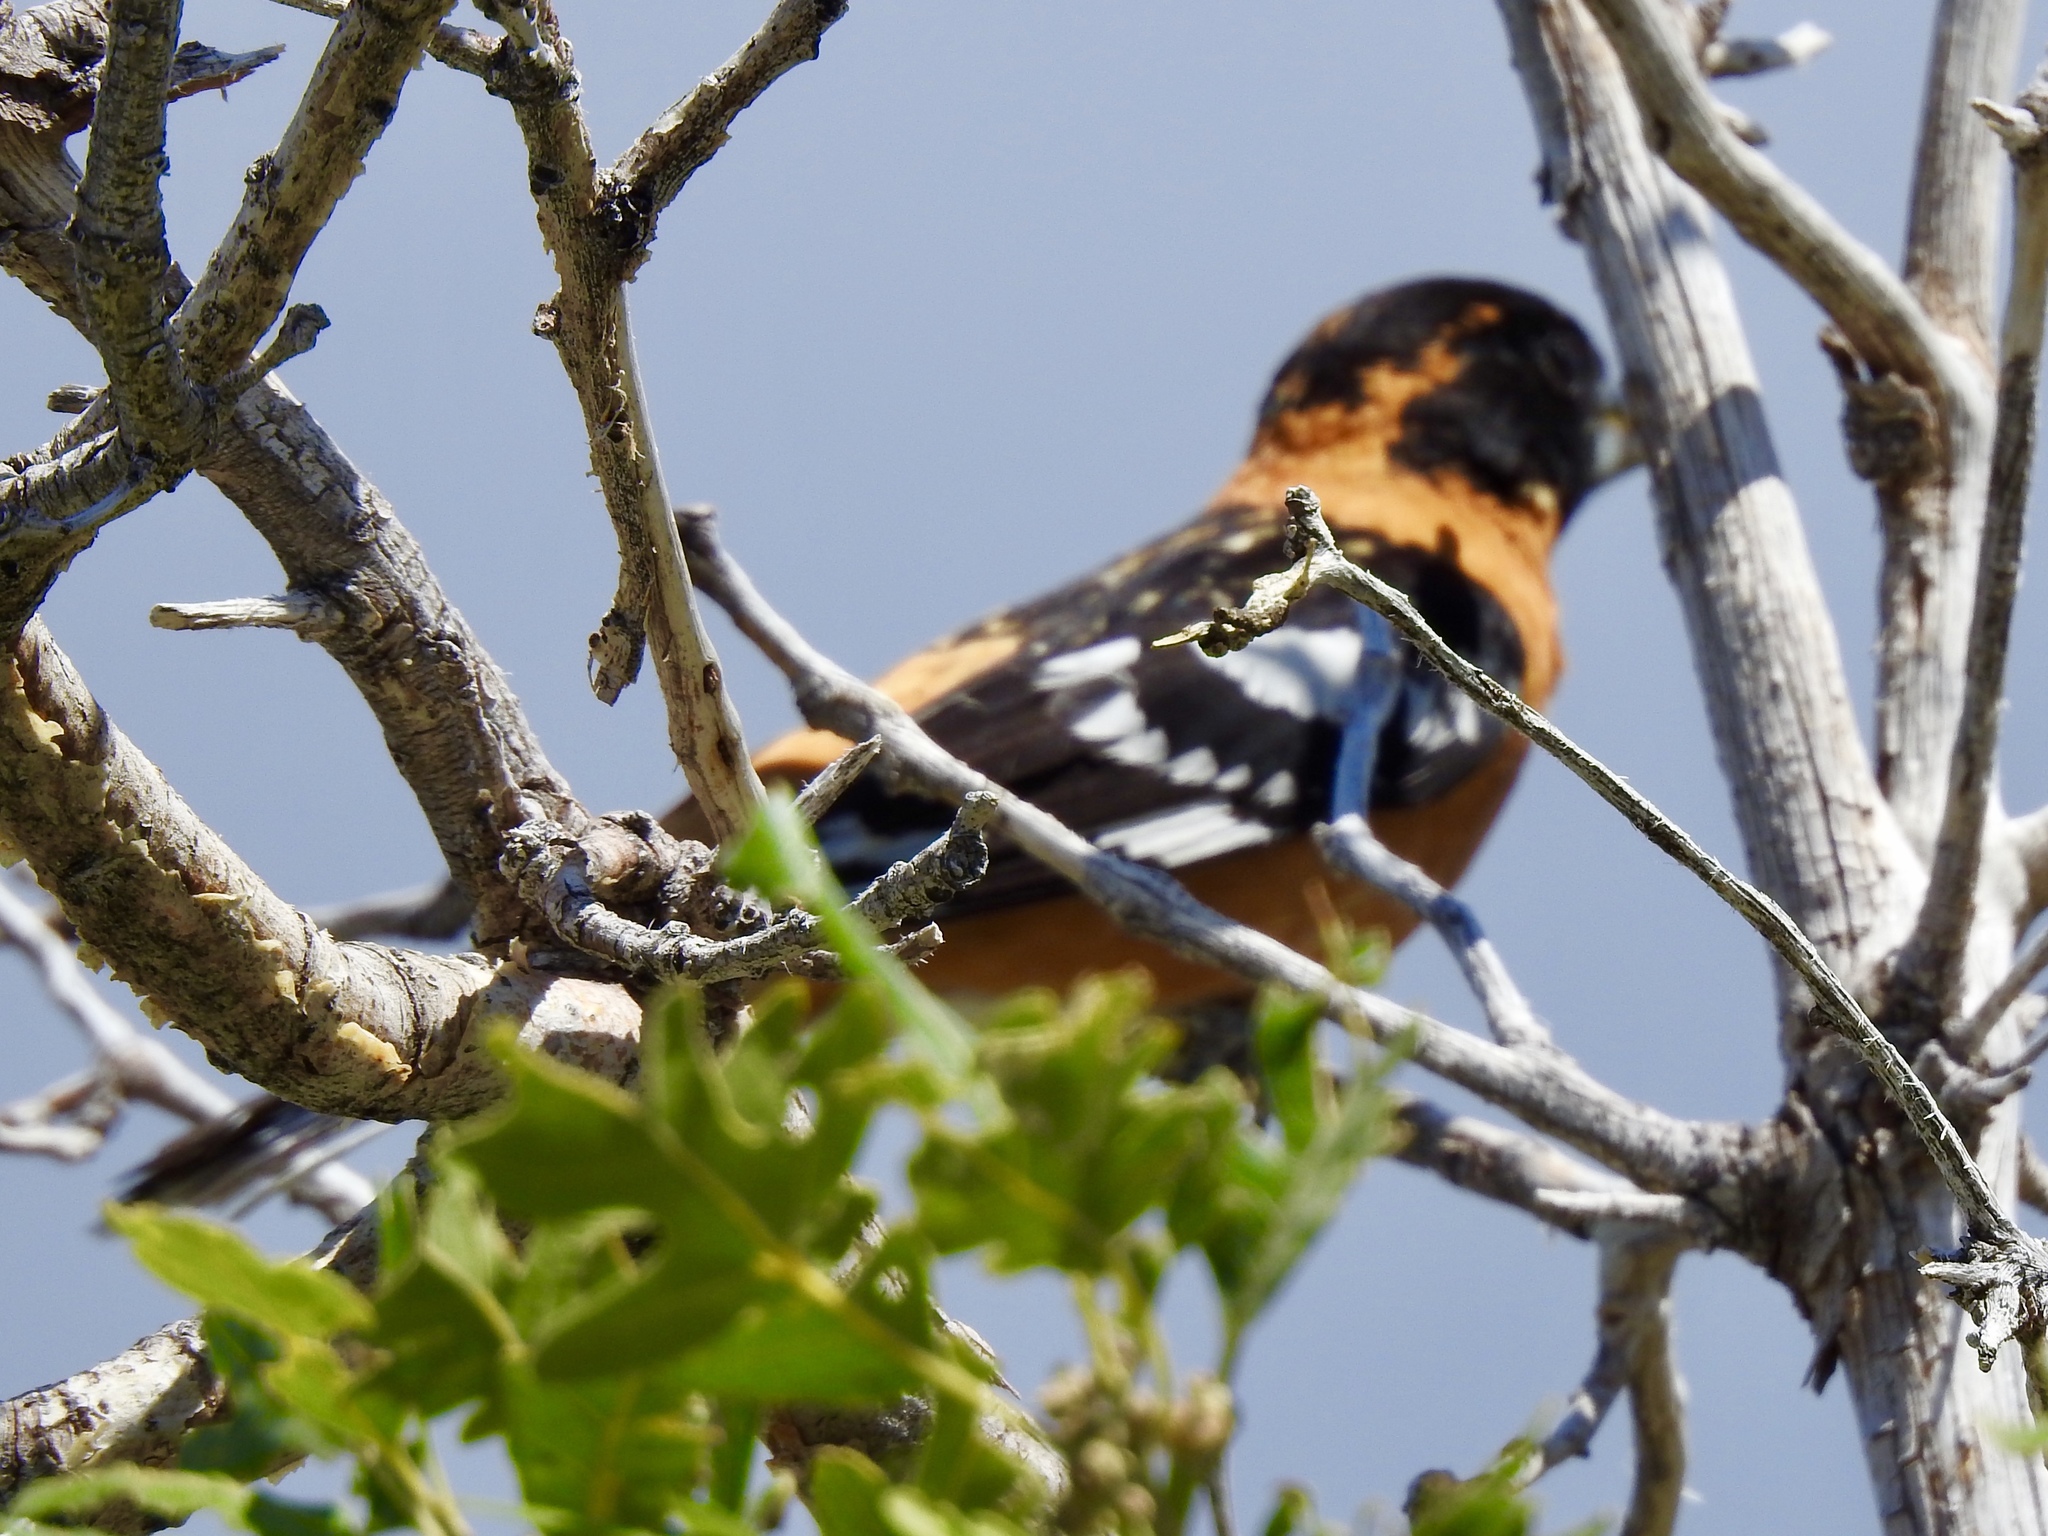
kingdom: Animalia
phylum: Chordata
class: Aves
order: Passeriformes
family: Cardinalidae
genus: Pheucticus
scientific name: Pheucticus melanocephalus
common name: Black-headed grosbeak
